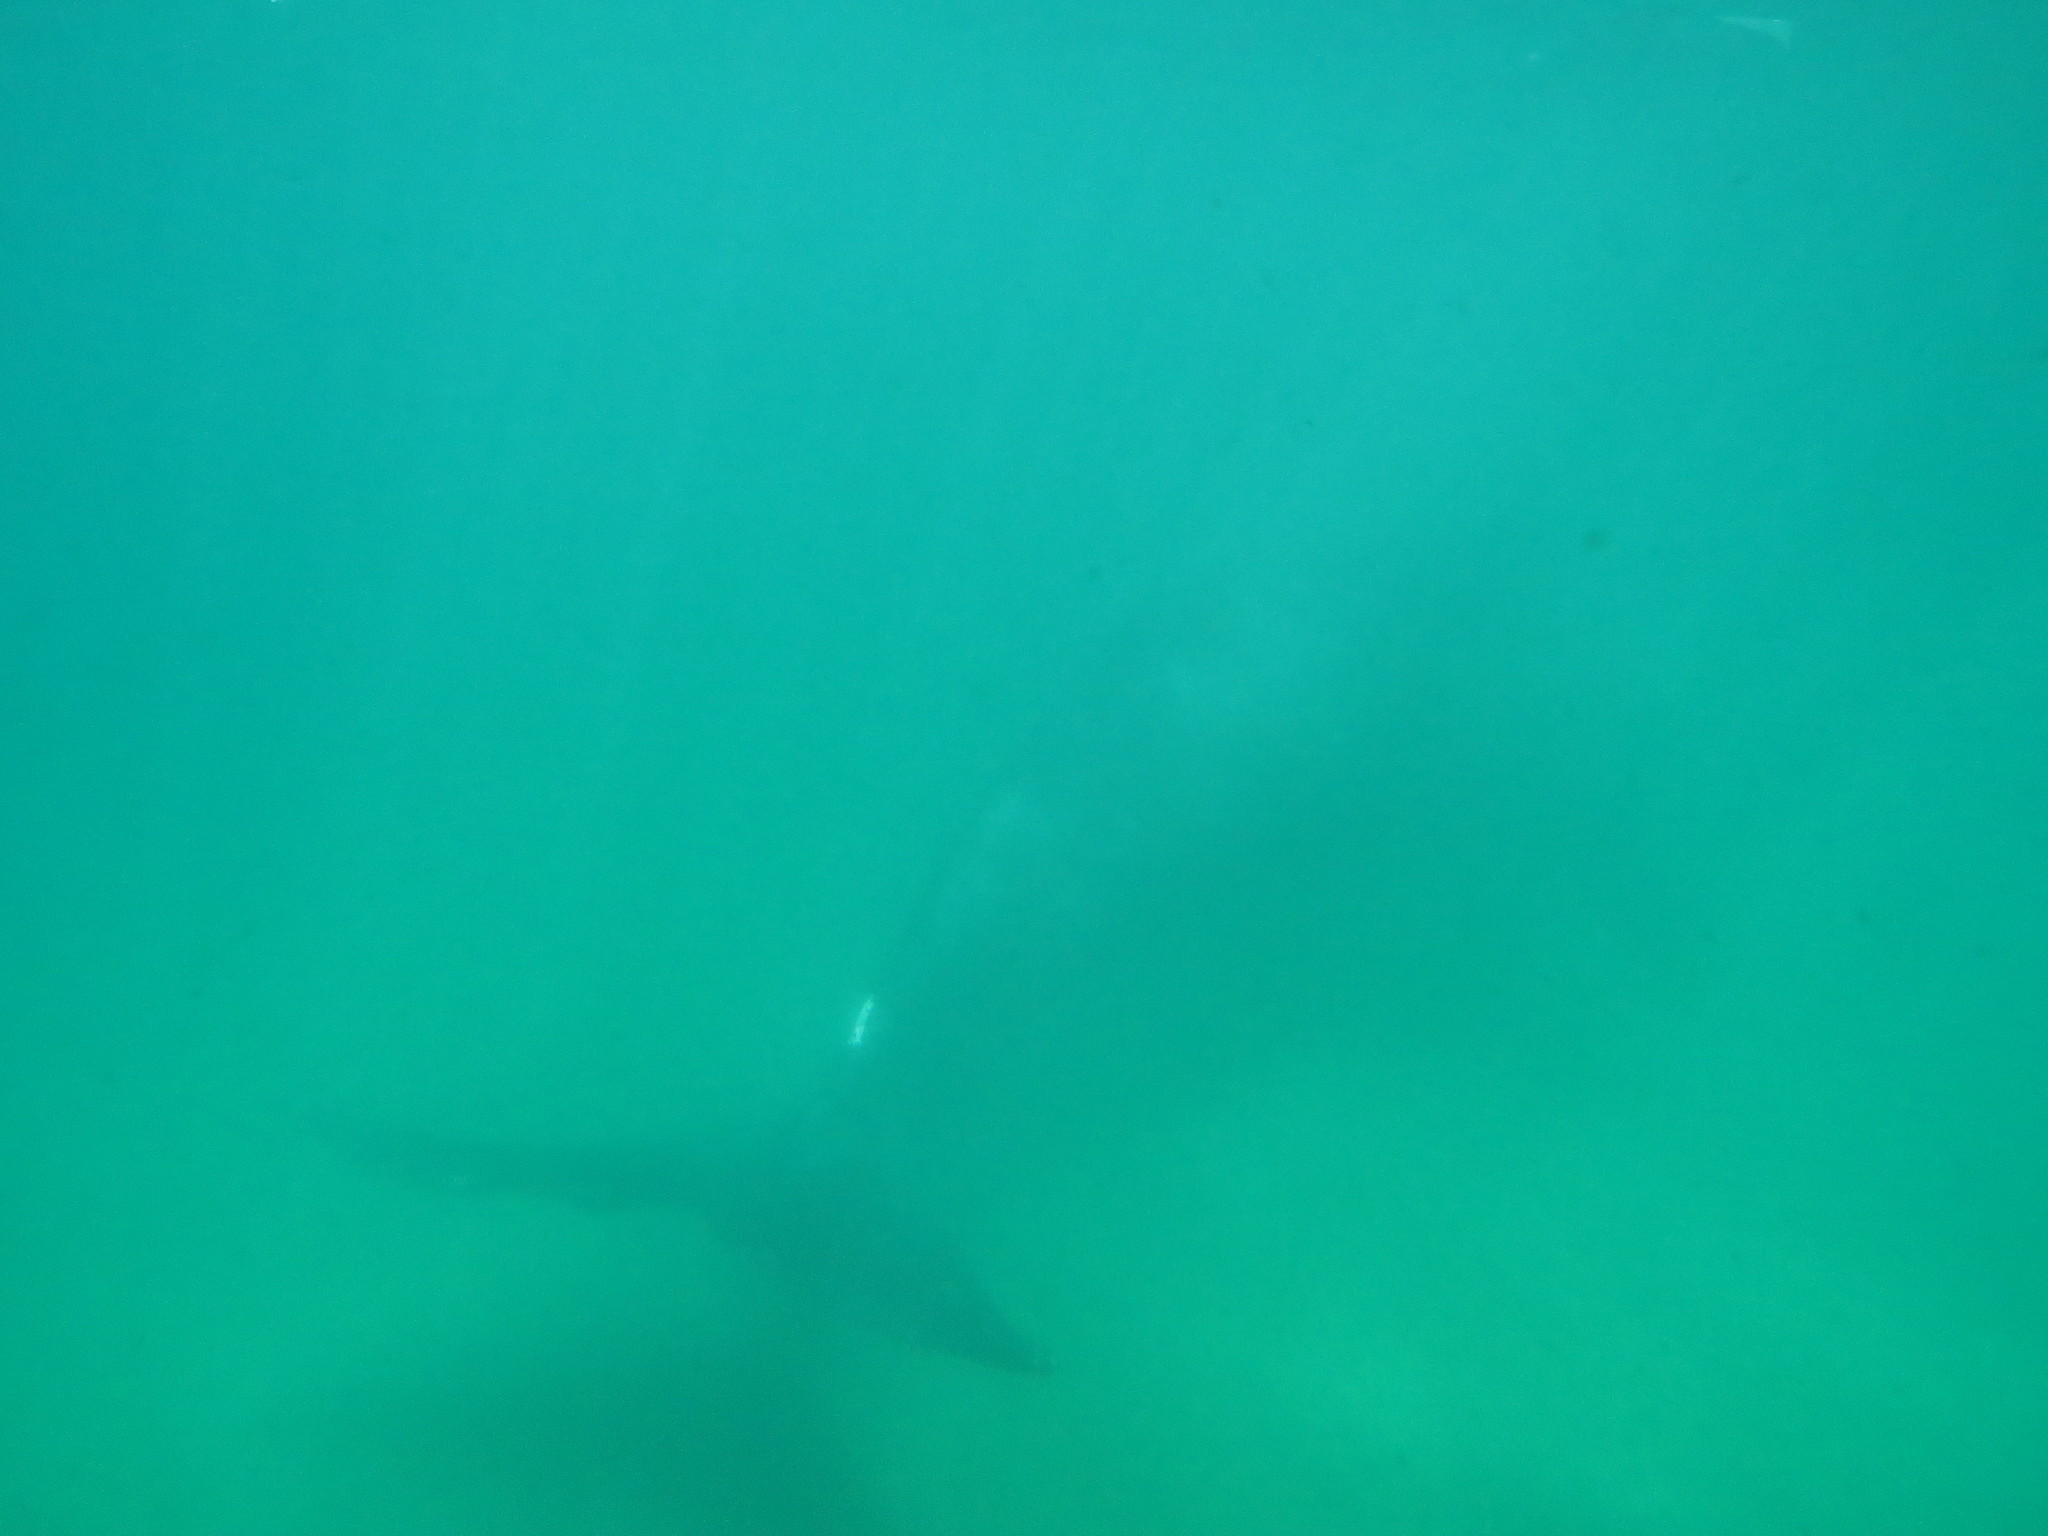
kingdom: Animalia
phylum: Chordata
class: Mammalia
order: Cetacea
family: Balaenidae
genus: Eubalaena
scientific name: Eubalaena australis
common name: Southern right whale
